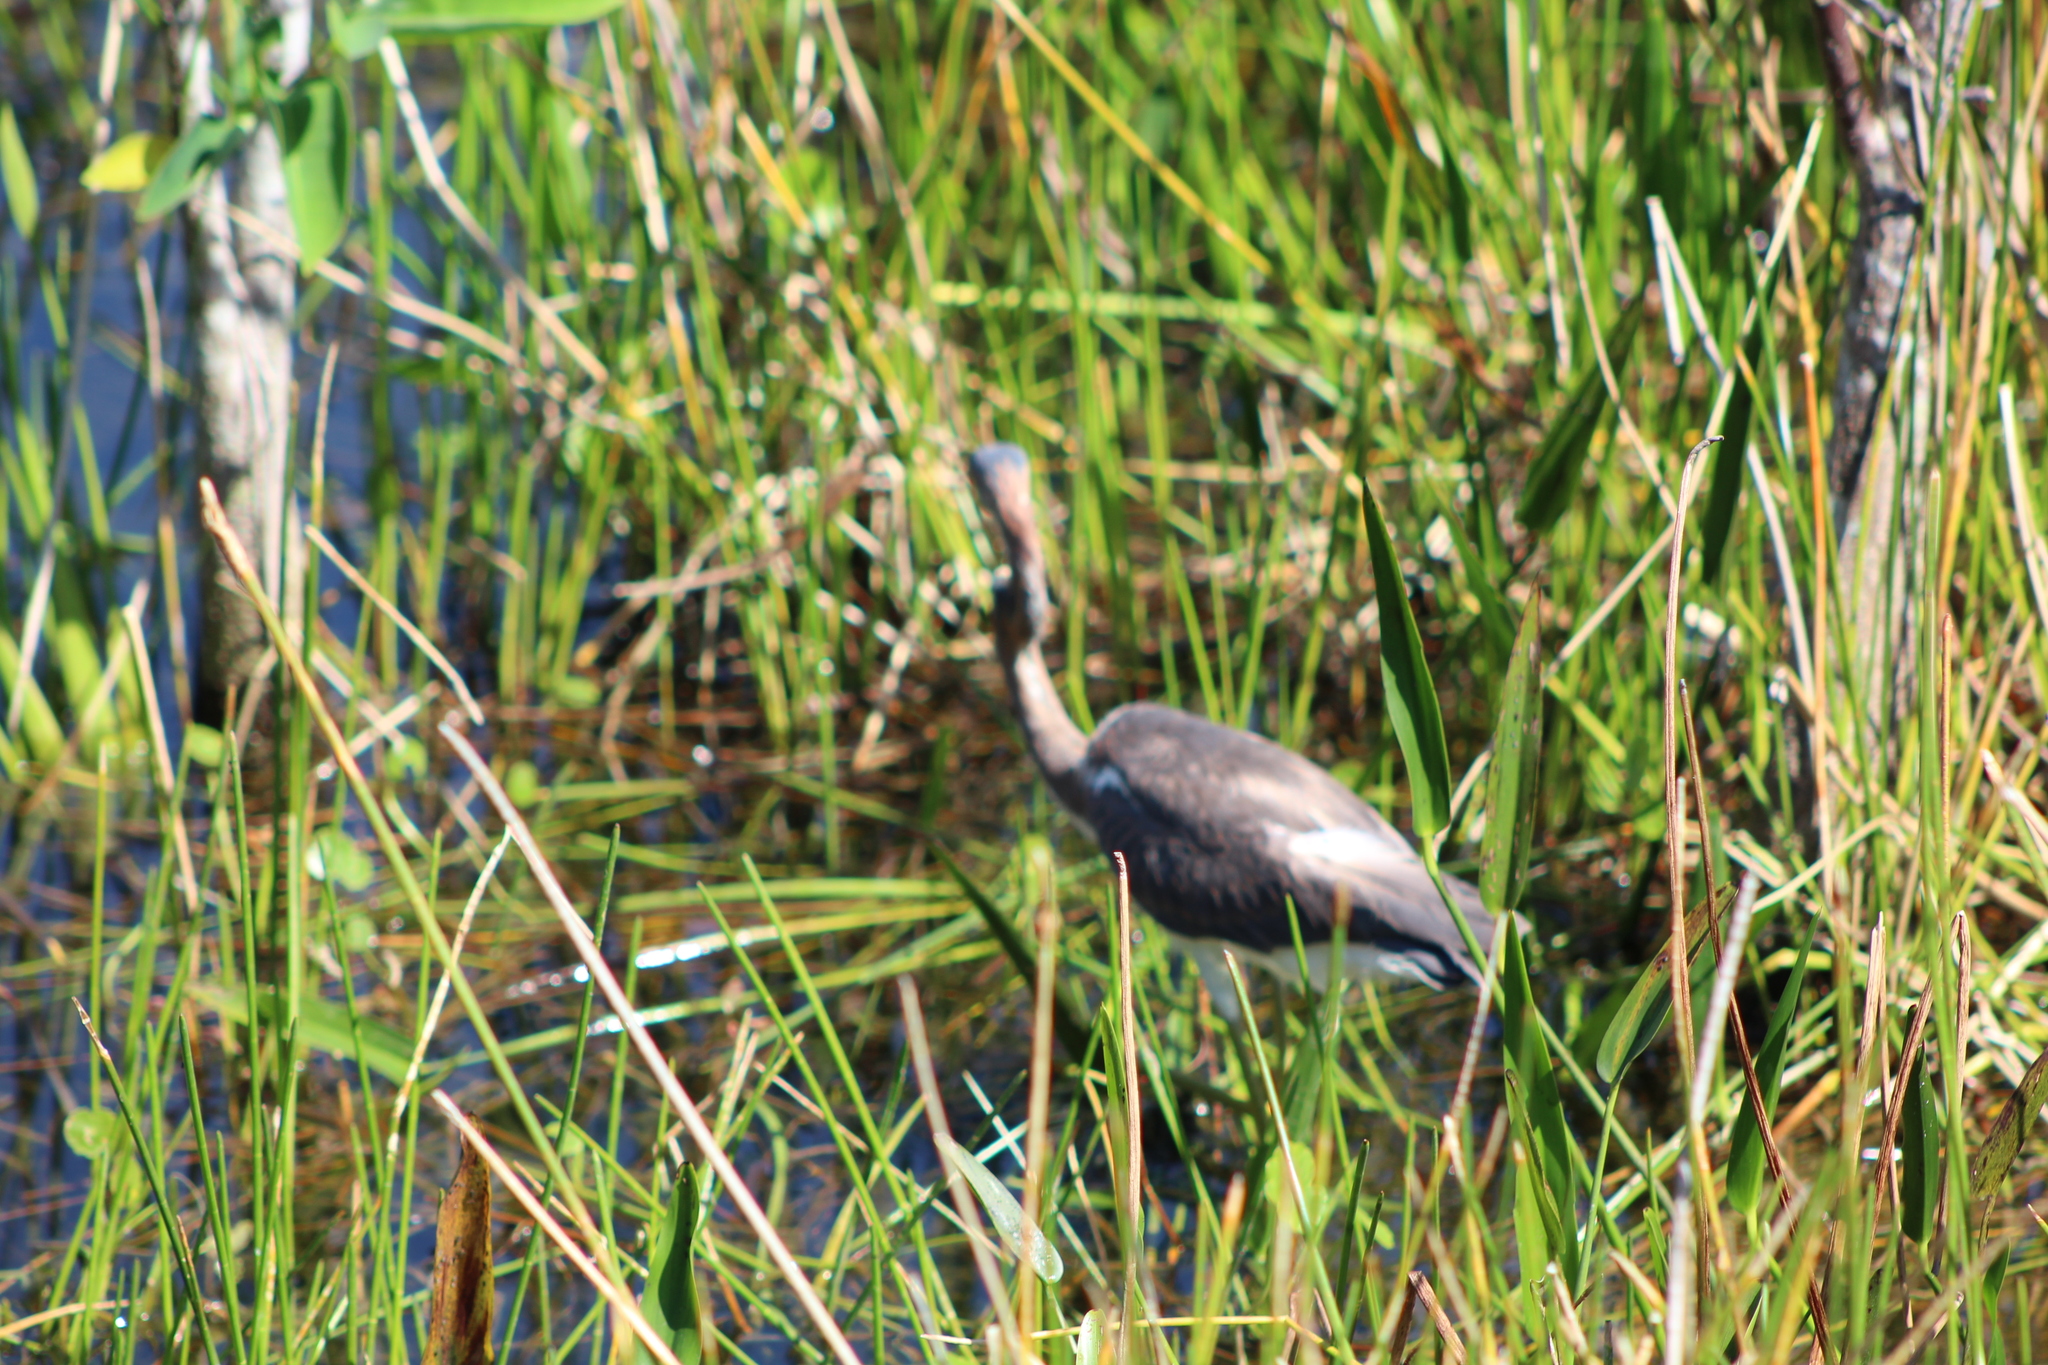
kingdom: Animalia
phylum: Chordata
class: Aves
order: Pelecaniformes
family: Ardeidae
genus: Egretta
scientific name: Egretta tricolor
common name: Tricolored heron
